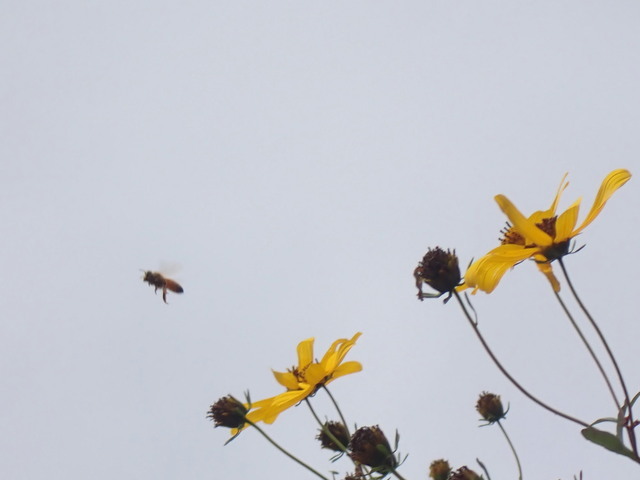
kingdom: Animalia
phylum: Arthropoda
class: Insecta
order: Hymenoptera
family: Apidae
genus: Apis
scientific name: Apis mellifera
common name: Honey bee
